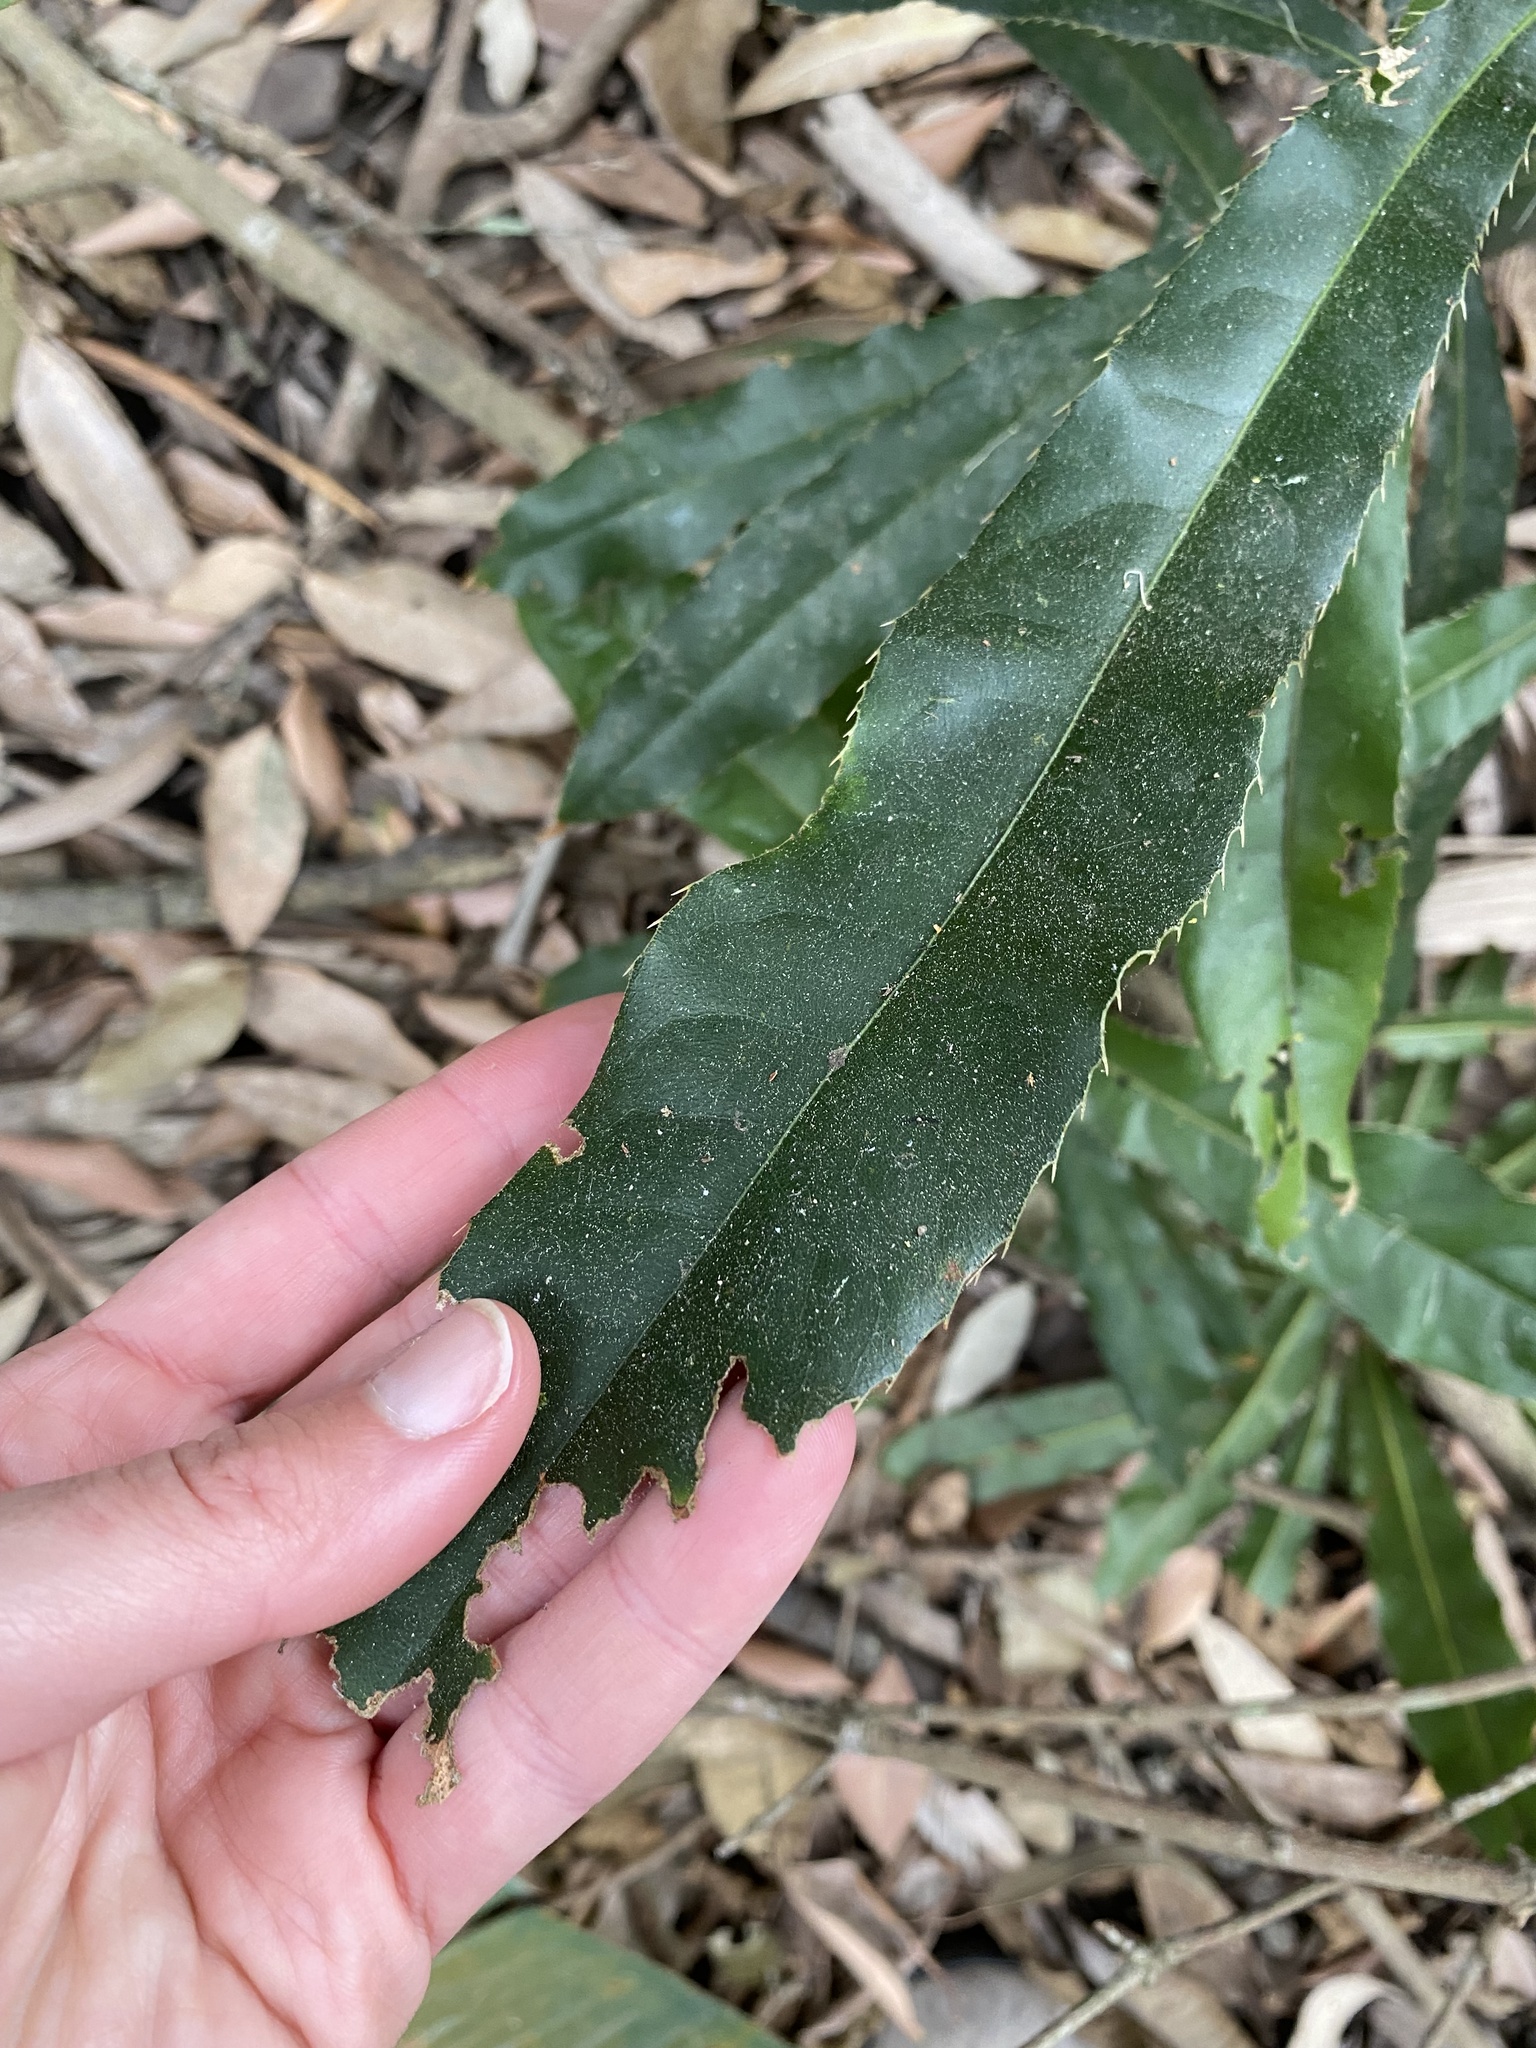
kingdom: Plantae
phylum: Tracheophyta
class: Magnoliopsida
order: Proteales
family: Proteaceae
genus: Macadamia
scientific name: Macadamia integrifolia
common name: Macadamia
